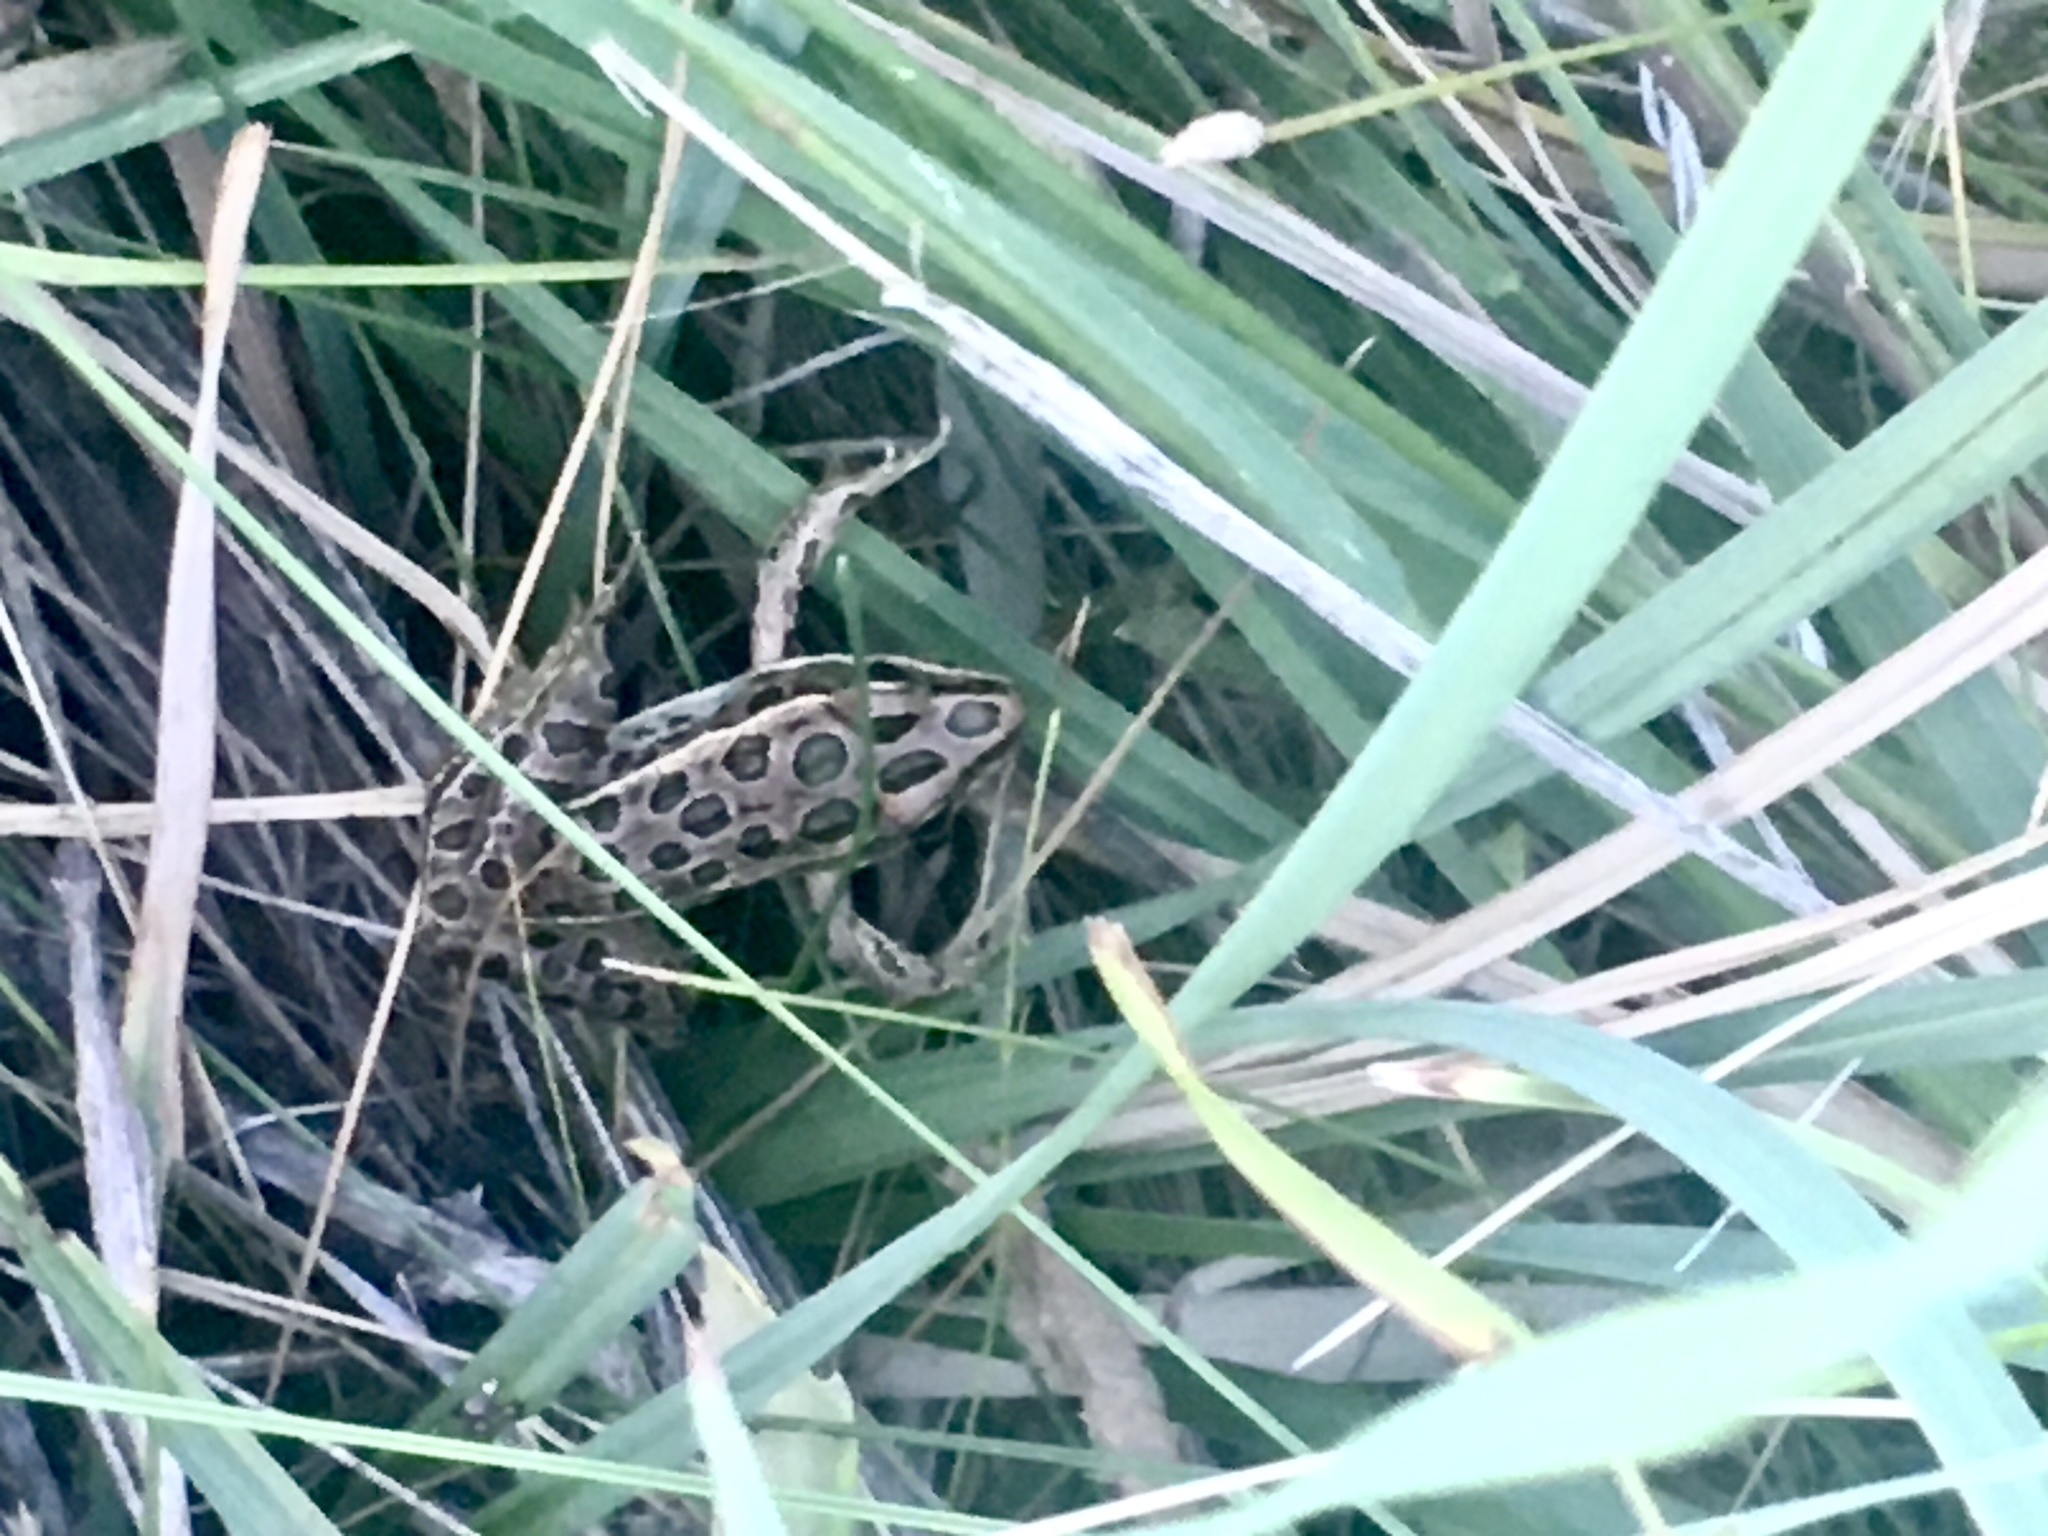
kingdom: Animalia
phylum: Chordata
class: Amphibia
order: Anura
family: Ranidae
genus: Lithobates
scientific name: Lithobates pipiens
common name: Northern leopard frog
